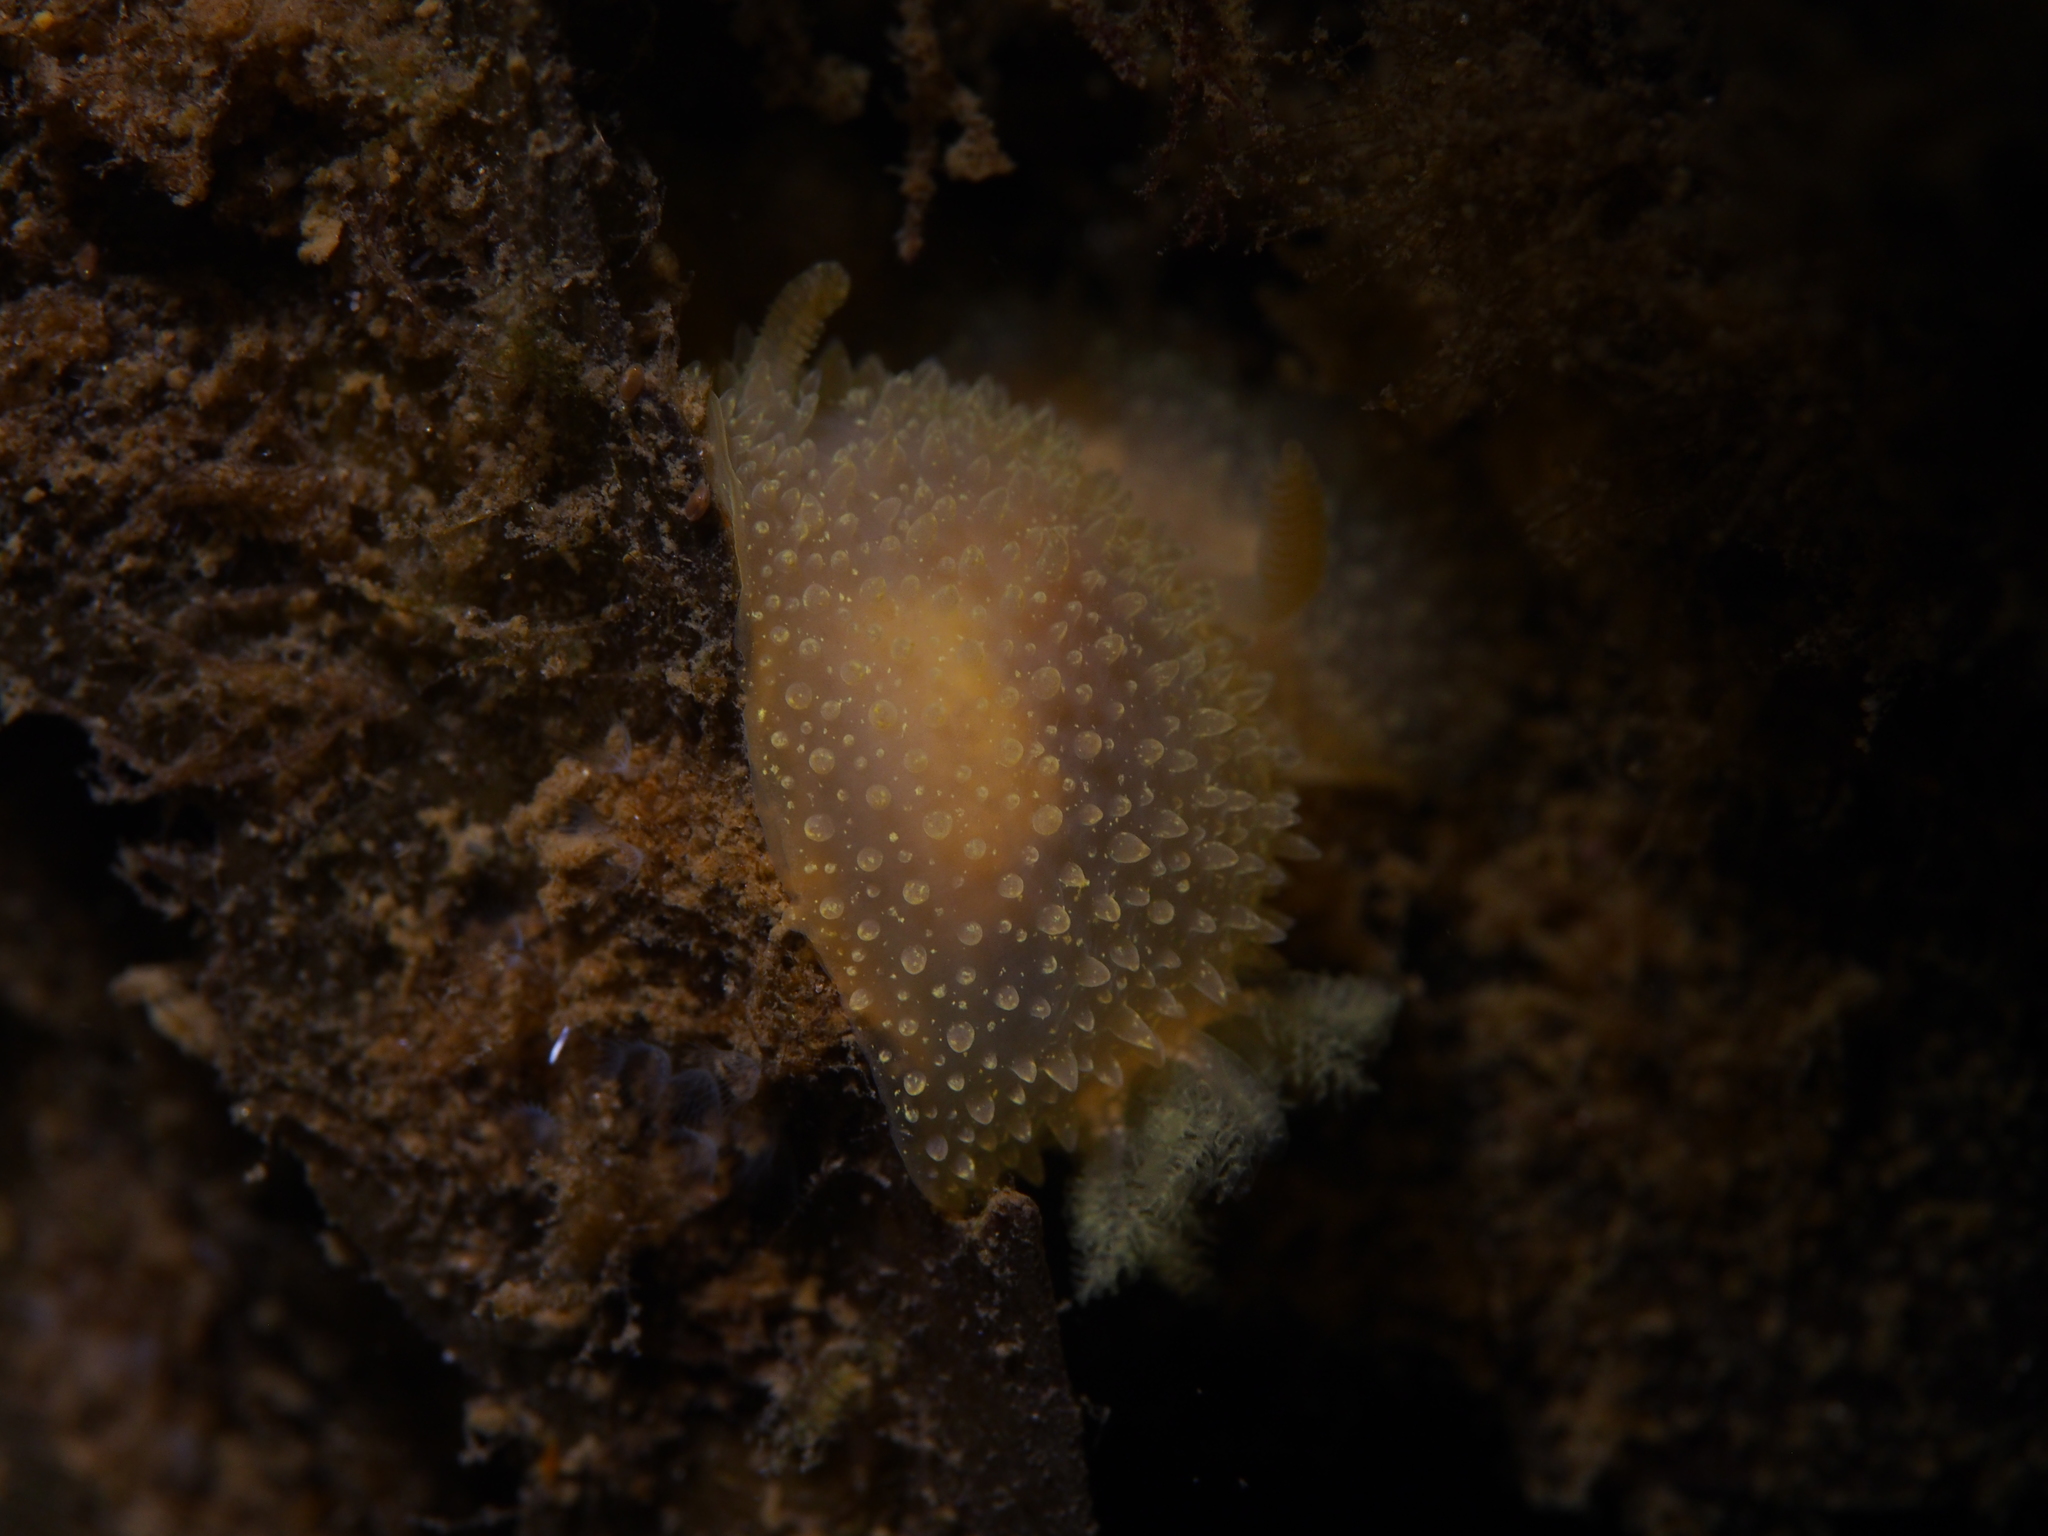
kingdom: Animalia
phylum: Mollusca
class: Gastropoda
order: Nudibranchia
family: Onchidorididae
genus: Acanthodoris
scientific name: Acanthodoris pilosa
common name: Hairy spiny doris
